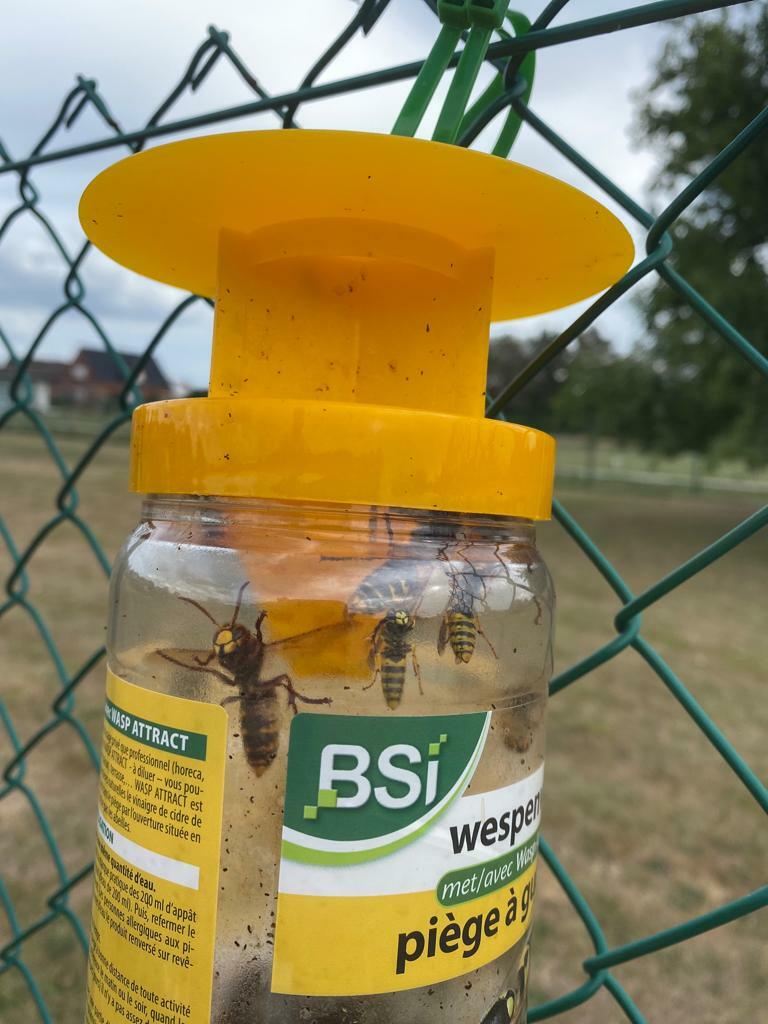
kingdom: Animalia
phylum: Arthropoda
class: Insecta
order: Hymenoptera
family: Vespidae
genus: Vespa
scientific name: Vespa crabro
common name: Hornet
